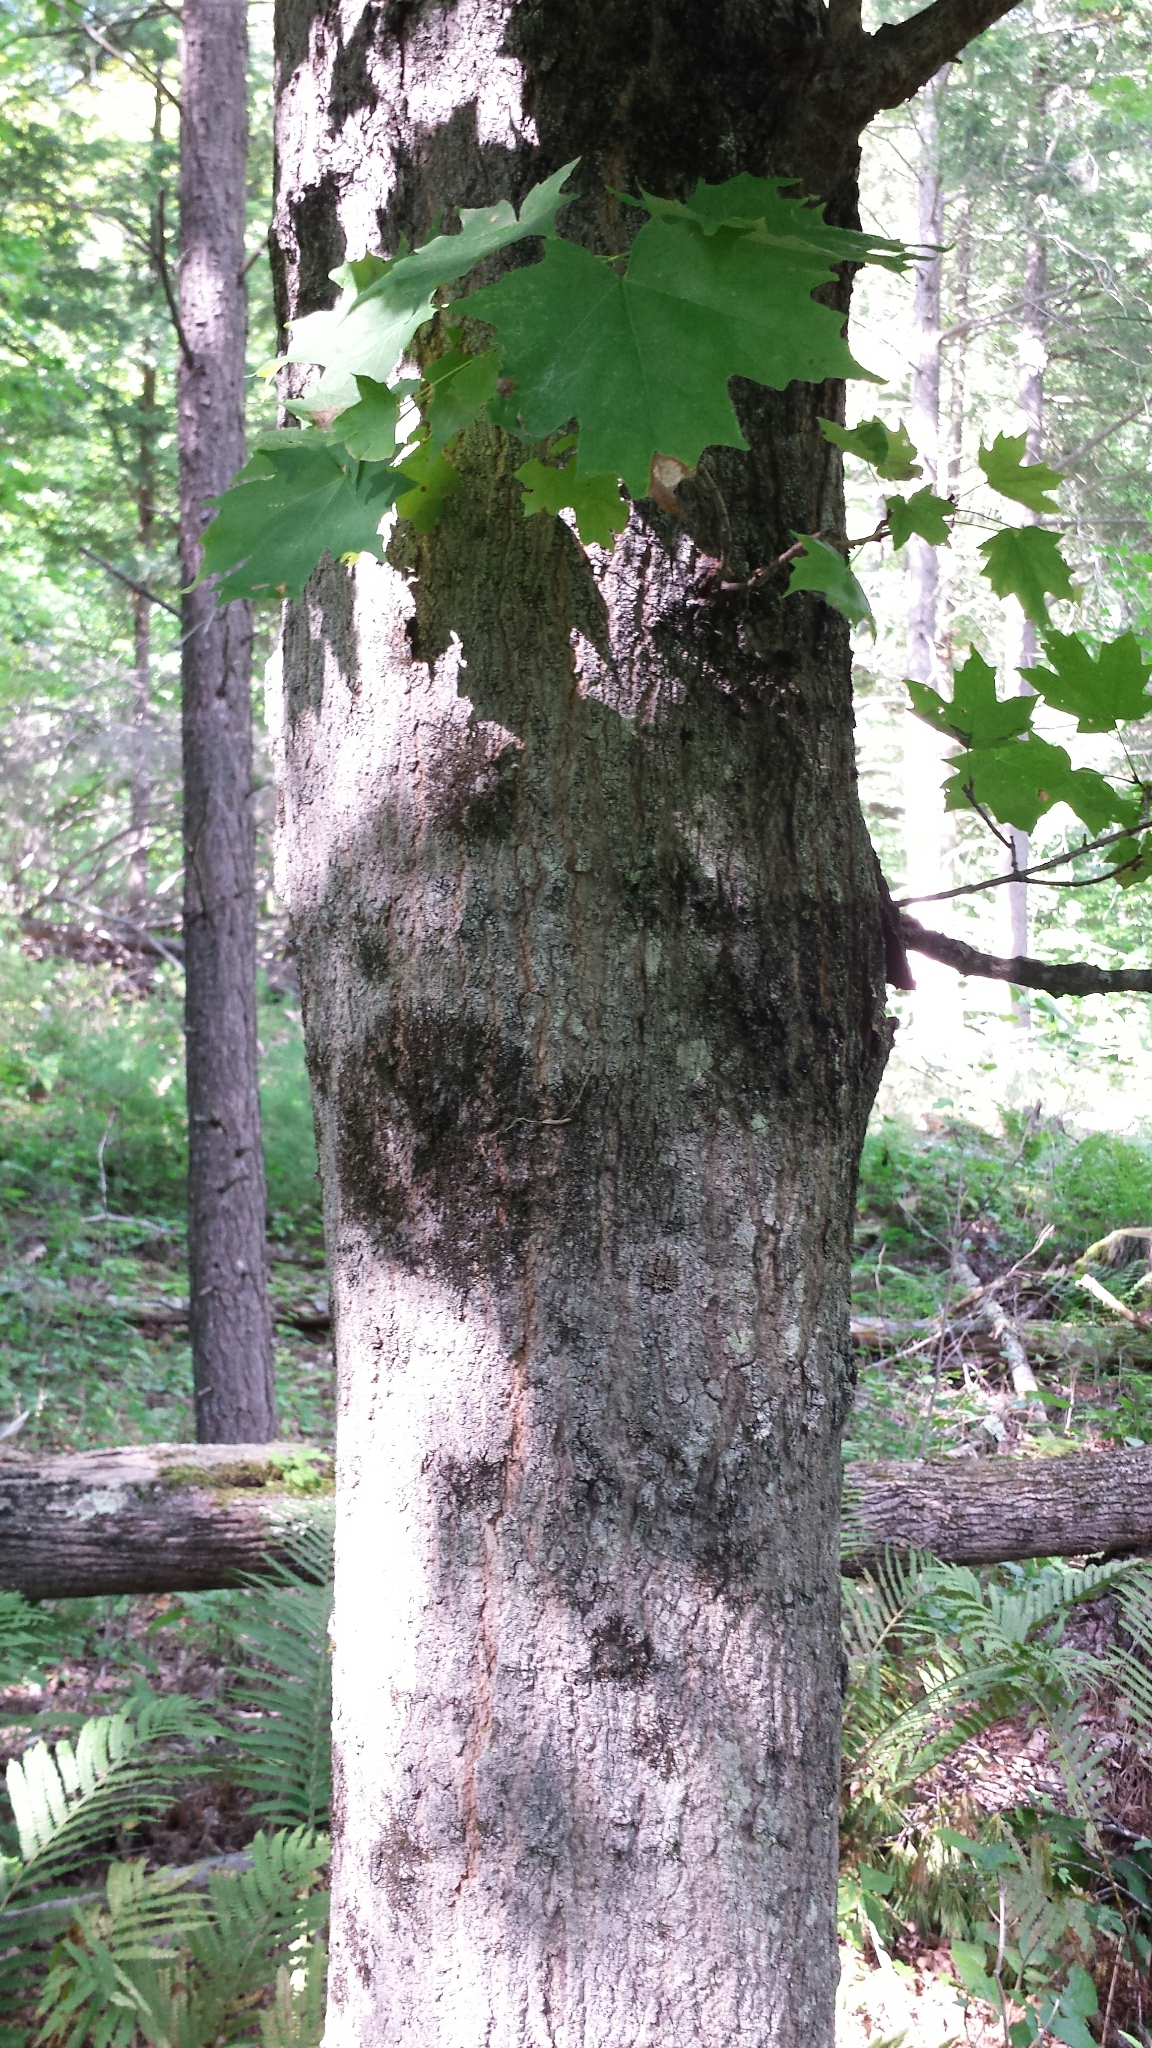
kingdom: Plantae
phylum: Tracheophyta
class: Magnoliopsida
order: Sapindales
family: Sapindaceae
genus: Acer
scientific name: Acer saccharum
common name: Sugar maple
